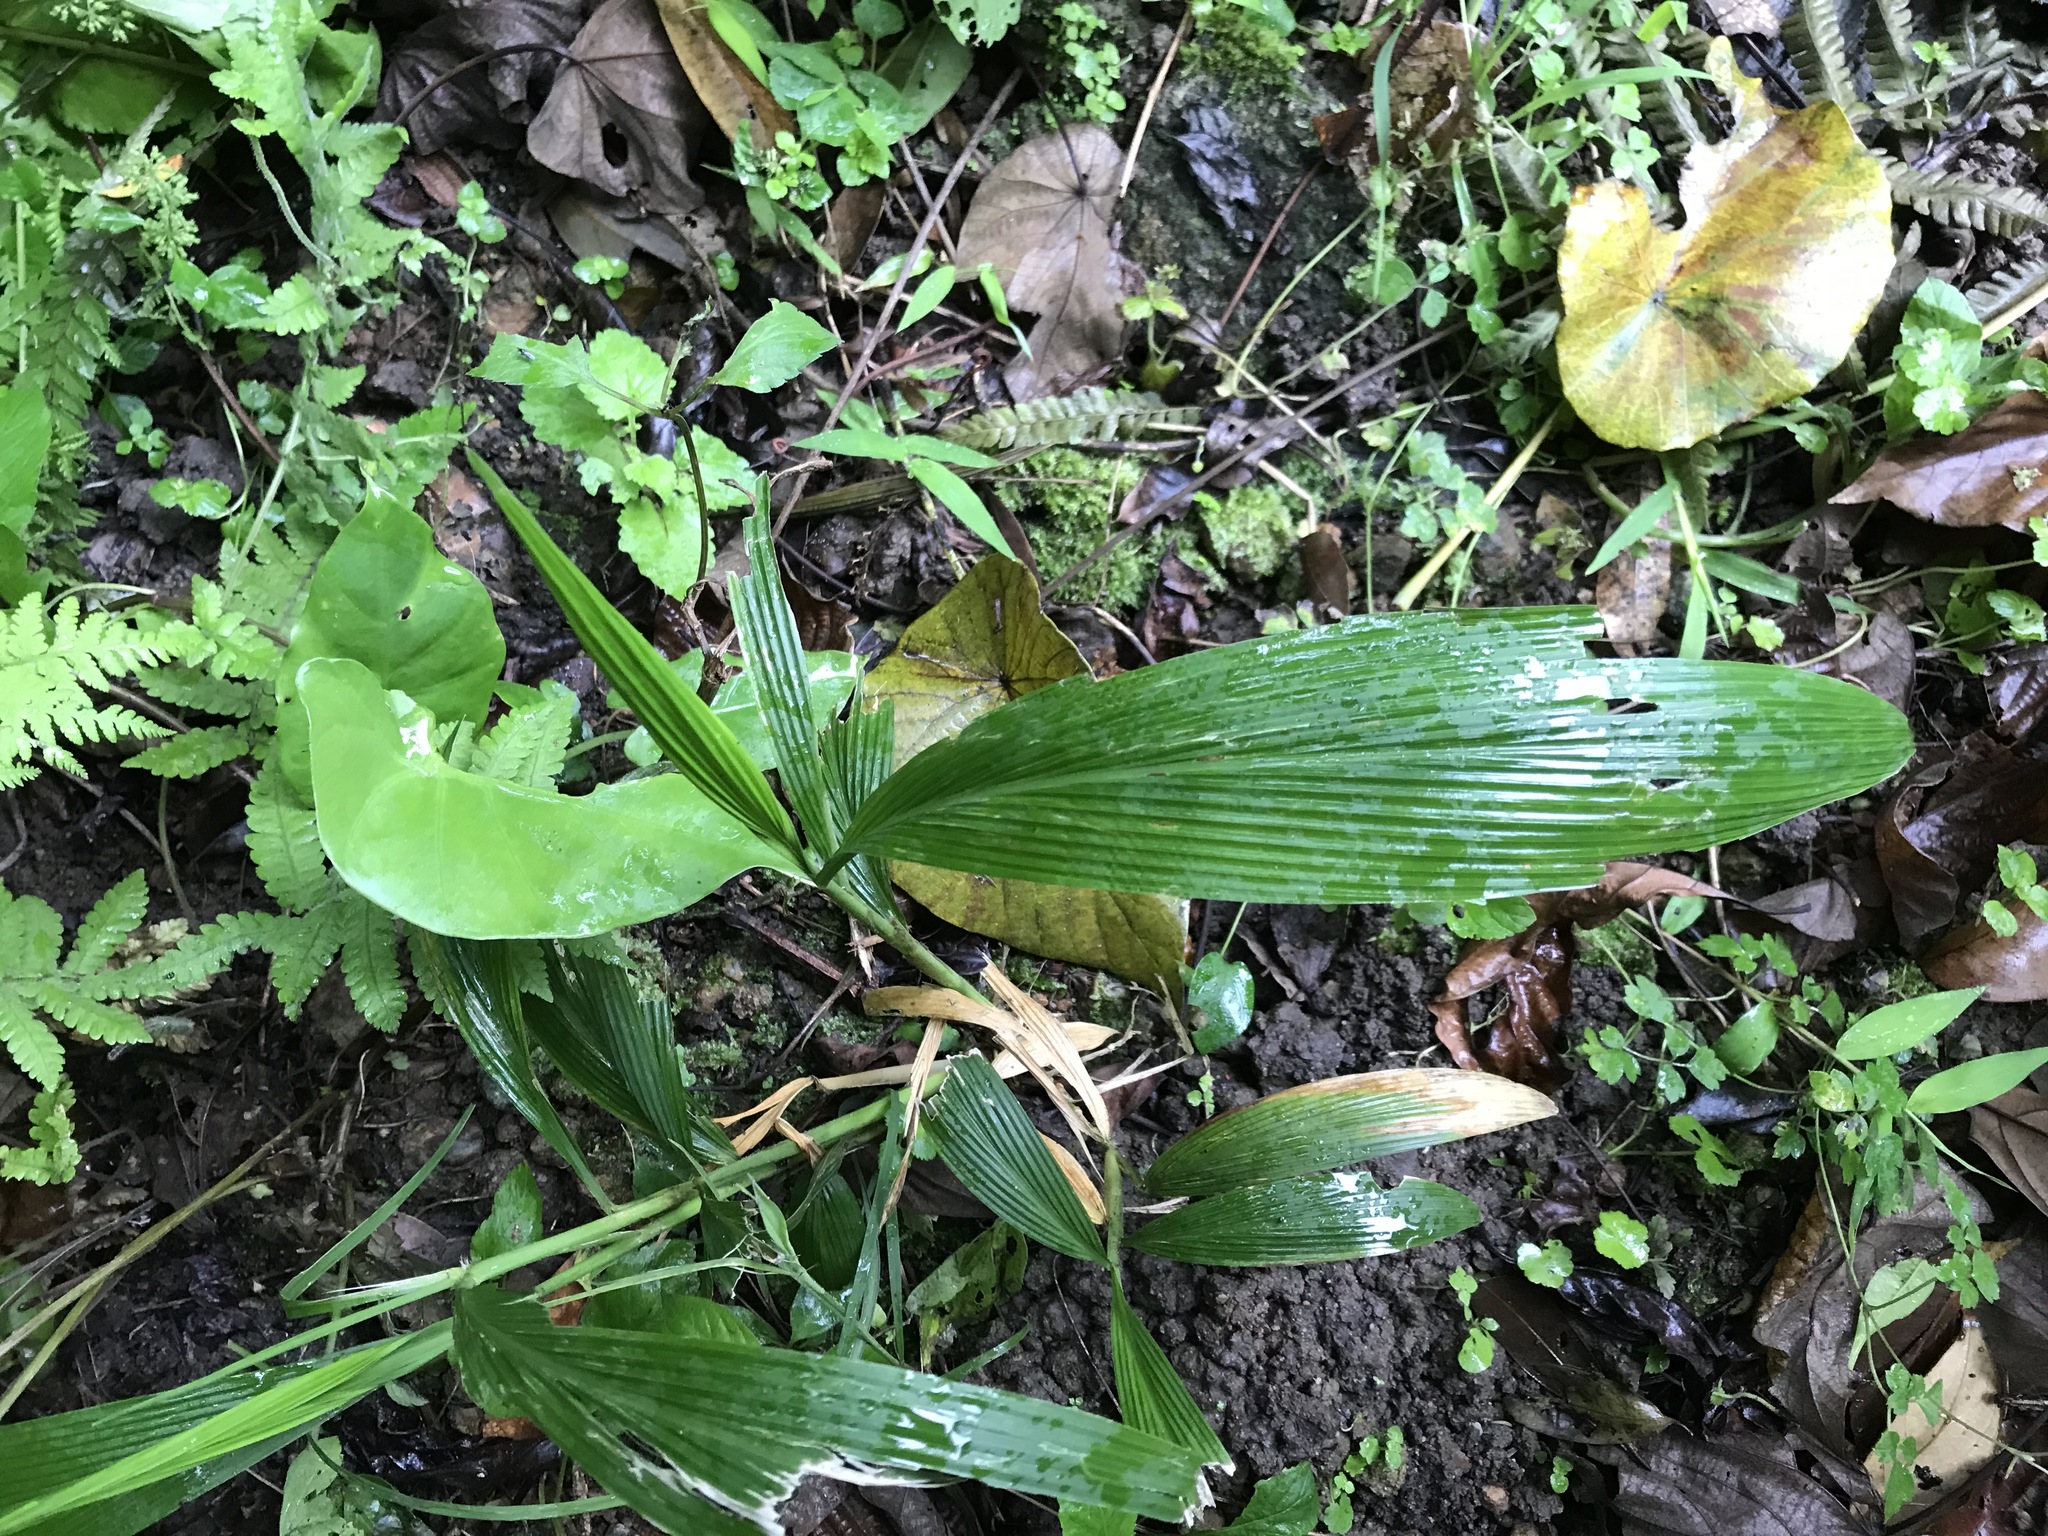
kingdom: Plantae
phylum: Tracheophyta
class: Liliopsida
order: Poales
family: Poaceae
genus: Setaria
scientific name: Setaria palmifolia
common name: Broadleaved bristlegrass
